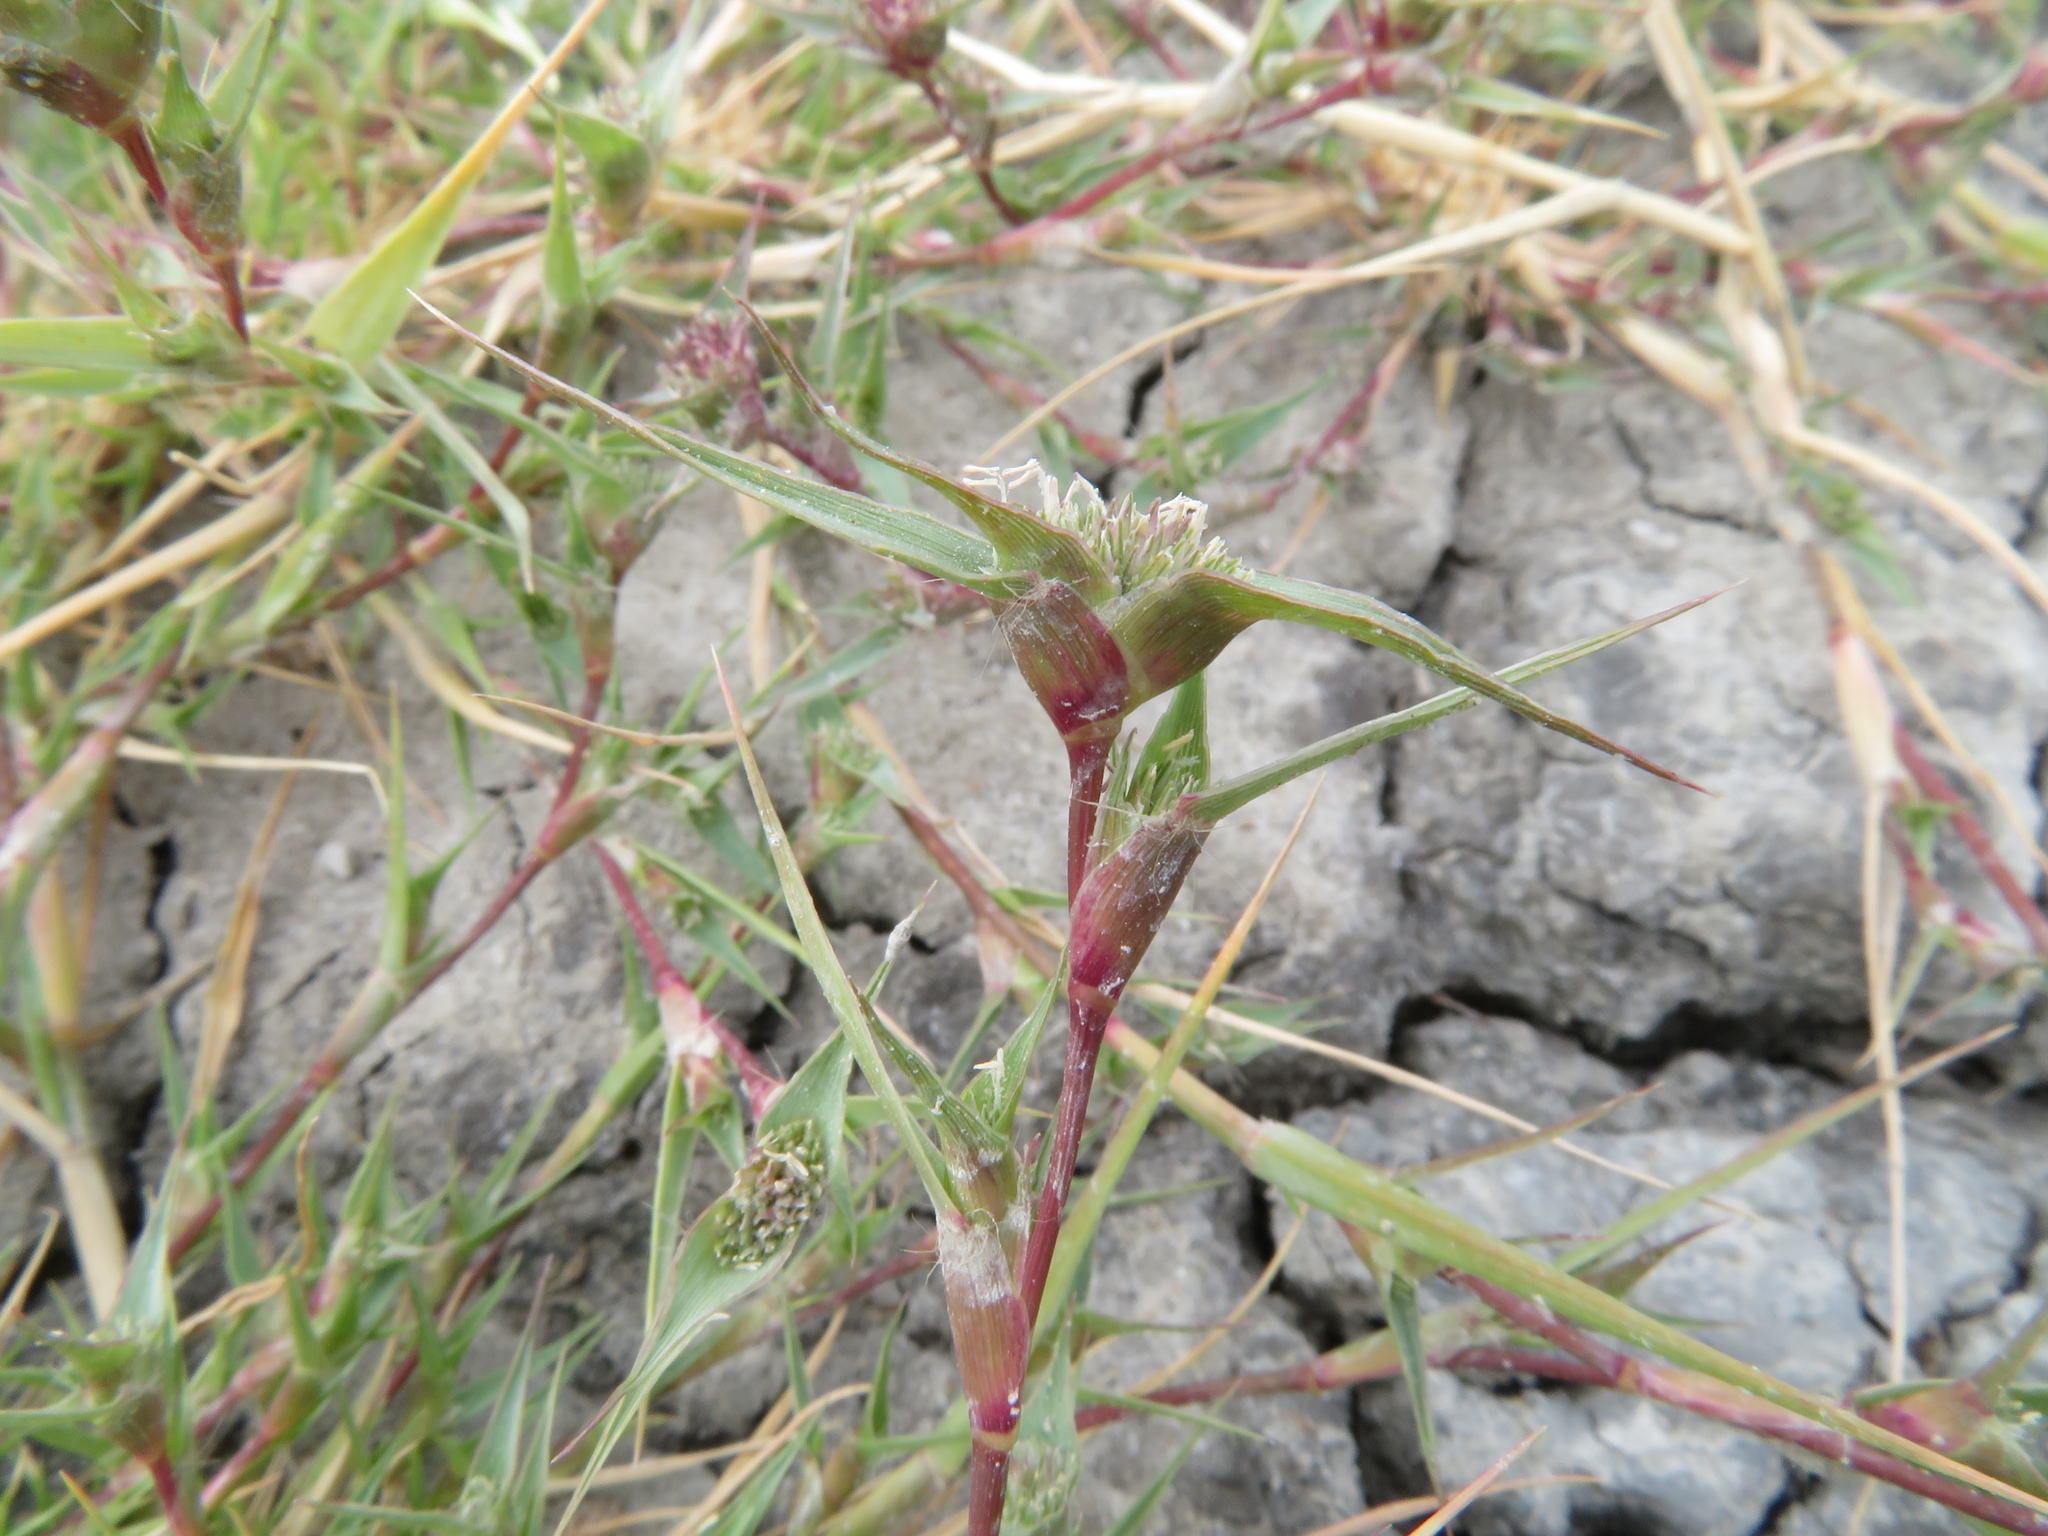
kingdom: Plantae
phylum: Tracheophyta
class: Liliopsida
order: Poales
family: Poaceae
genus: Sporobolus
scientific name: Sporobolus aculeatus
